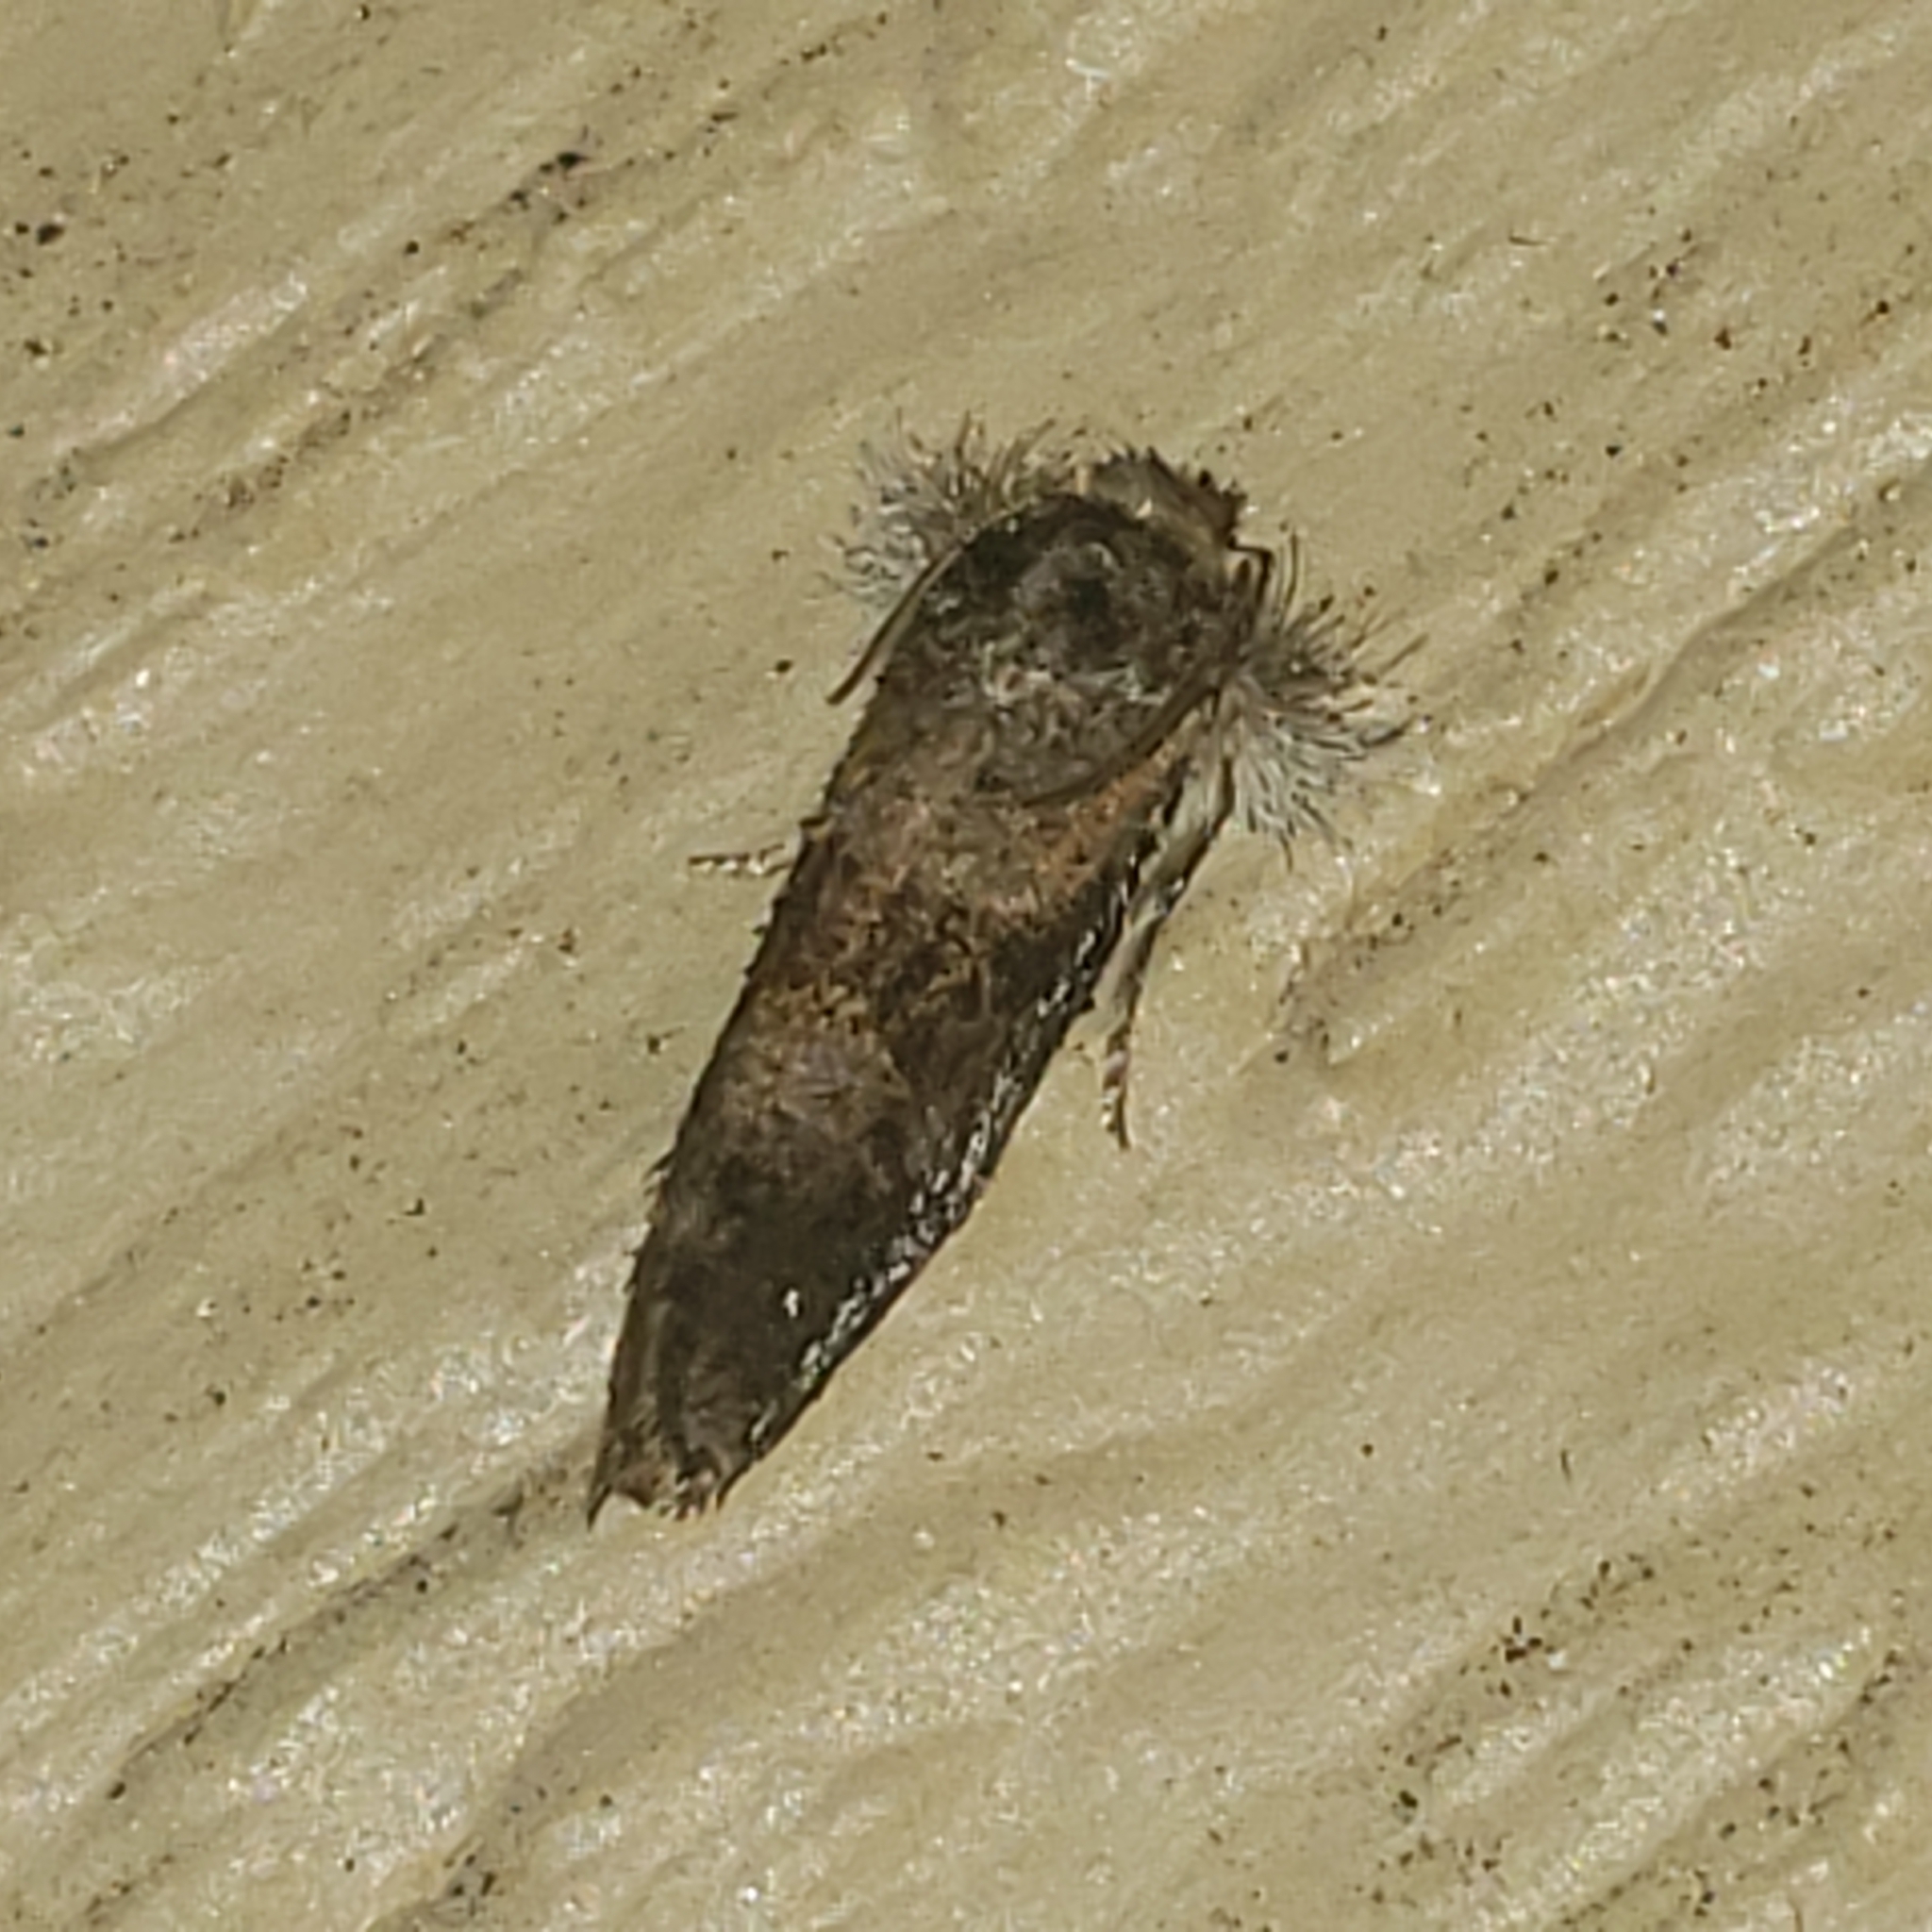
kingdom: Animalia
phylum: Arthropoda
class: Insecta
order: Lepidoptera
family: Tineidae
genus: Acrolophus
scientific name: Acrolophus panamae
